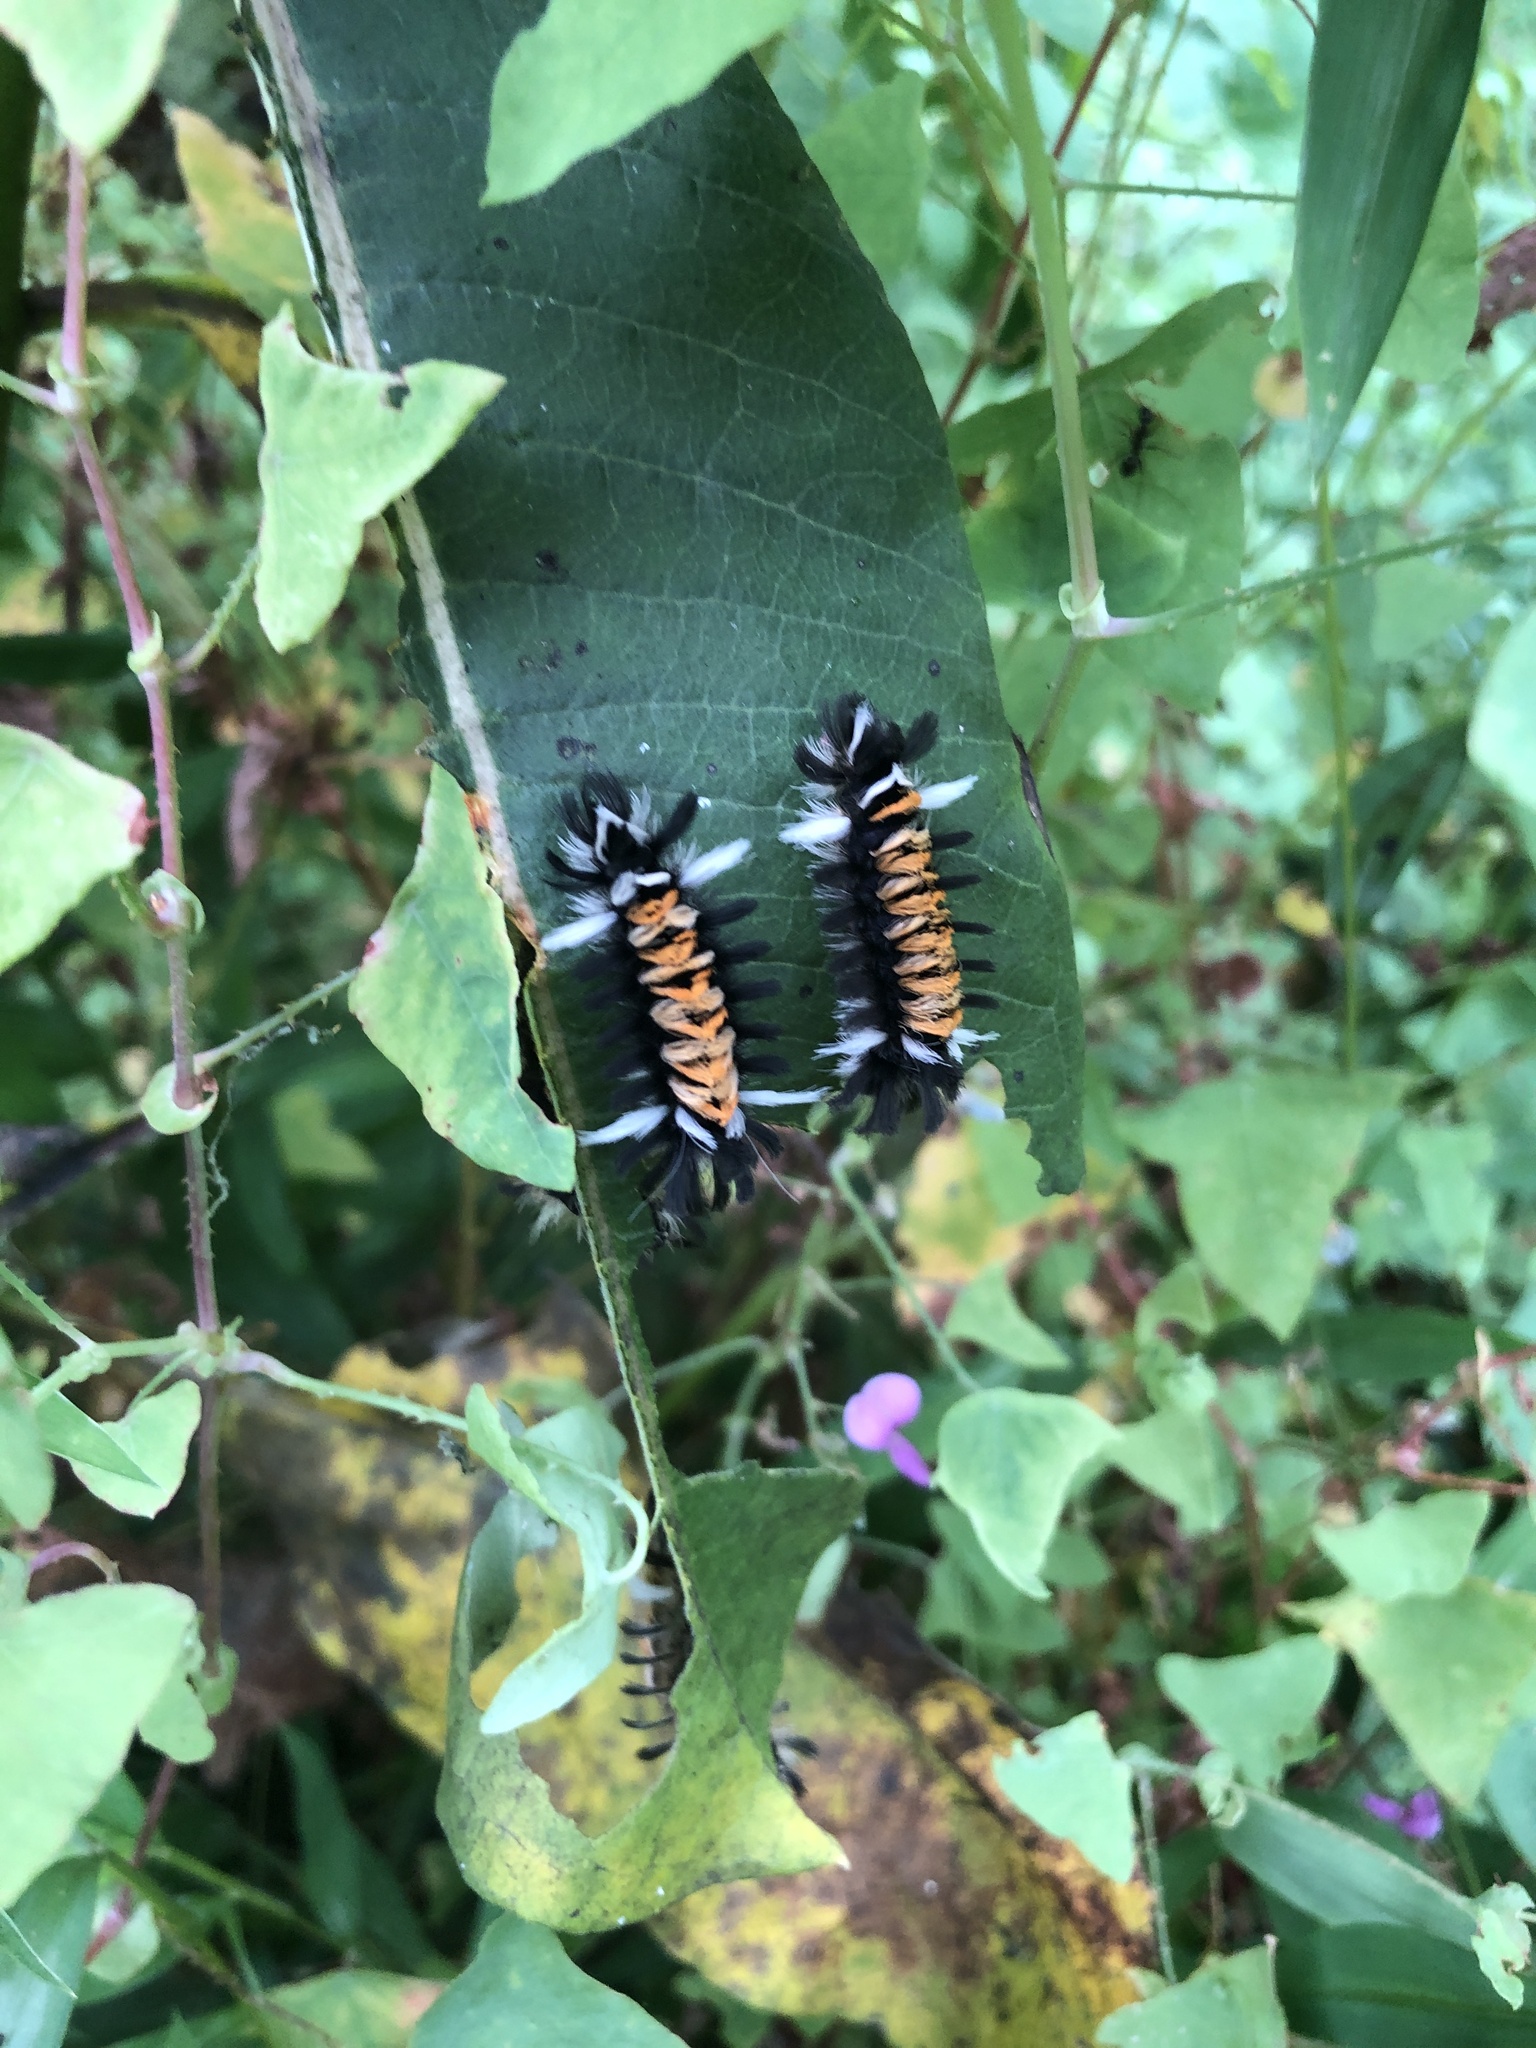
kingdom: Animalia
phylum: Arthropoda
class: Insecta
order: Lepidoptera
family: Erebidae
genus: Euchaetes
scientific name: Euchaetes egle
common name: Milkweed tussock moth
